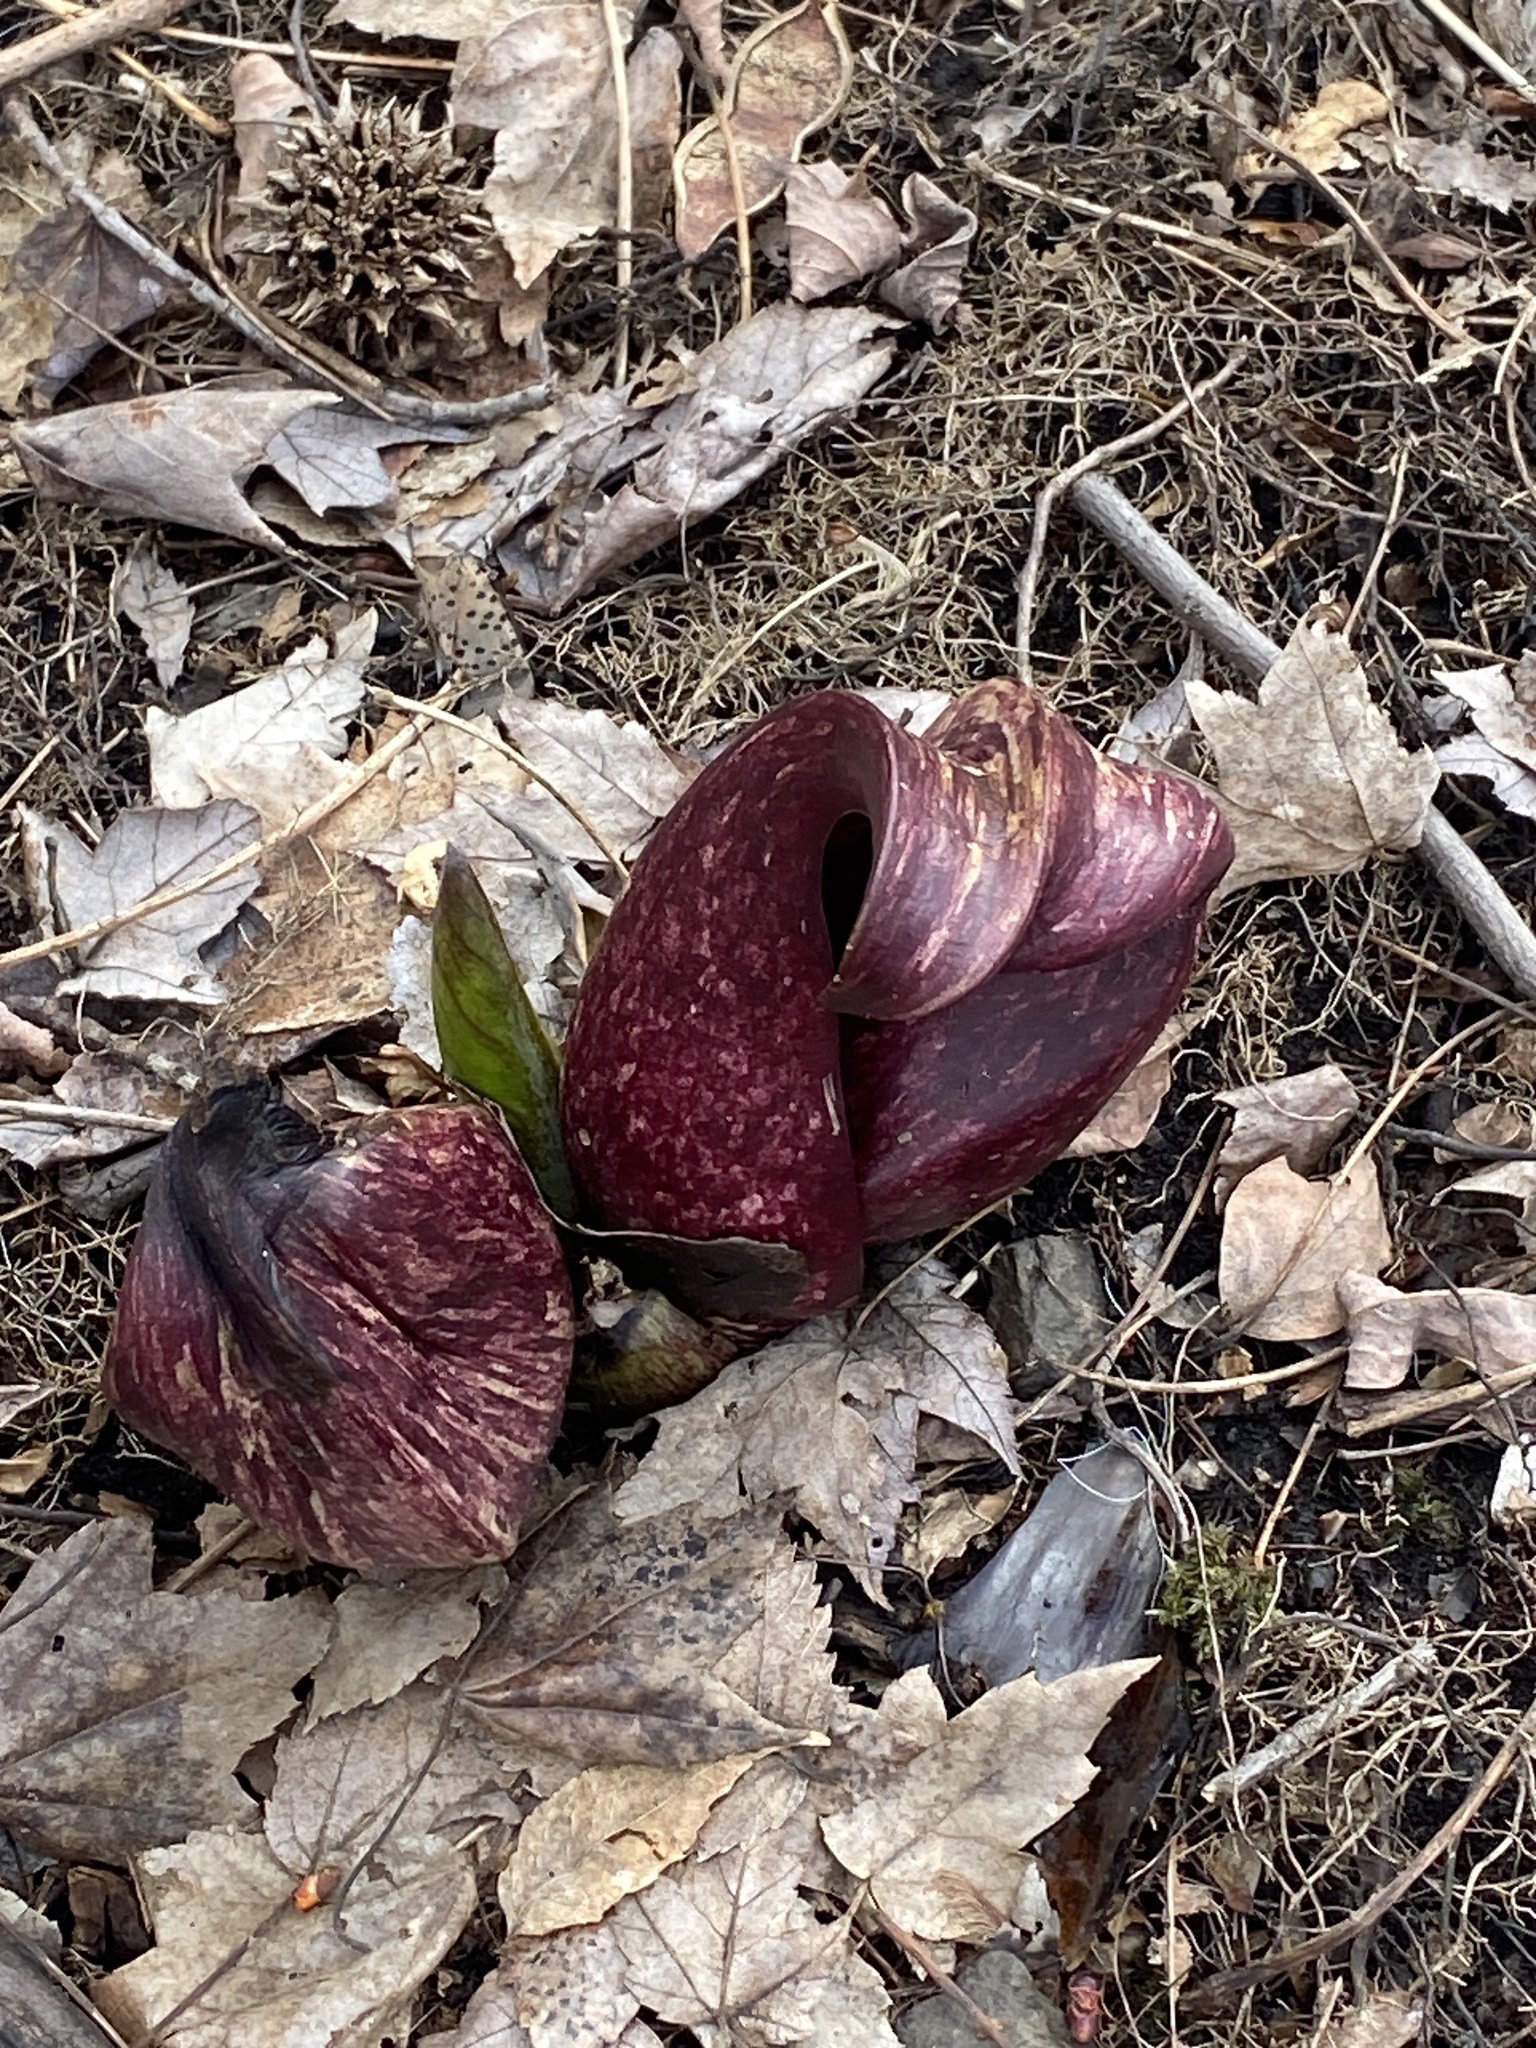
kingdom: Plantae
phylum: Tracheophyta
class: Liliopsida
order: Alismatales
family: Araceae
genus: Symplocarpus
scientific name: Symplocarpus foetidus
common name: Eastern skunk cabbage
